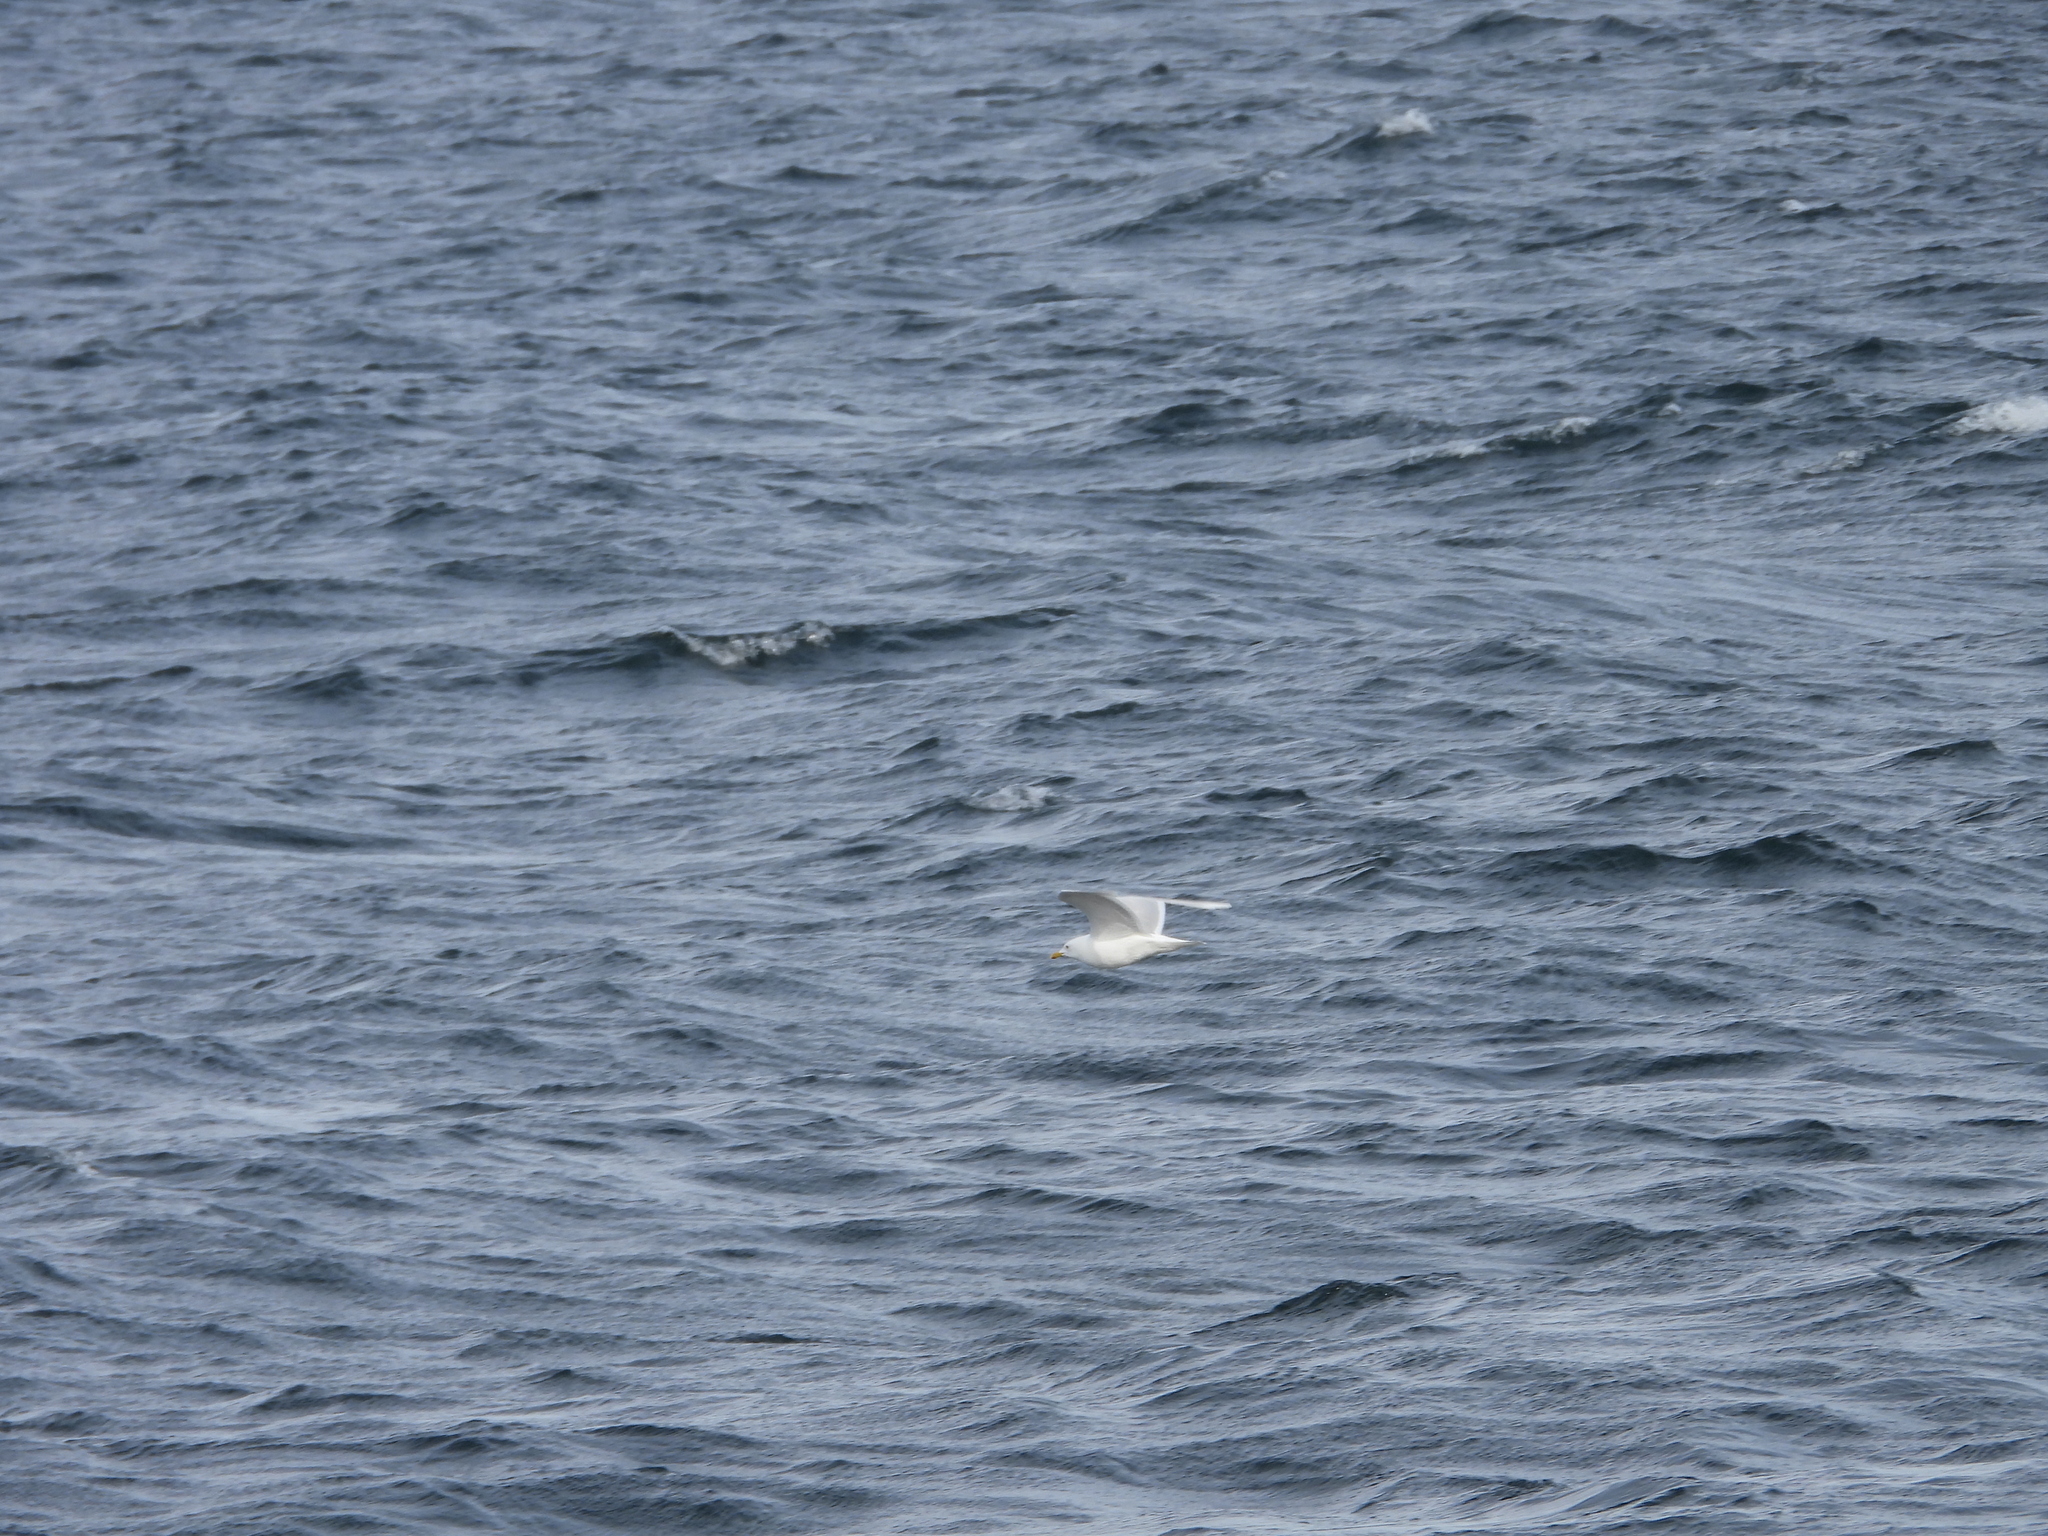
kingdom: Animalia
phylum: Chordata
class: Aves
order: Charadriiformes
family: Laridae
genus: Larus
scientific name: Larus glaucoides
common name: Iceland gull
